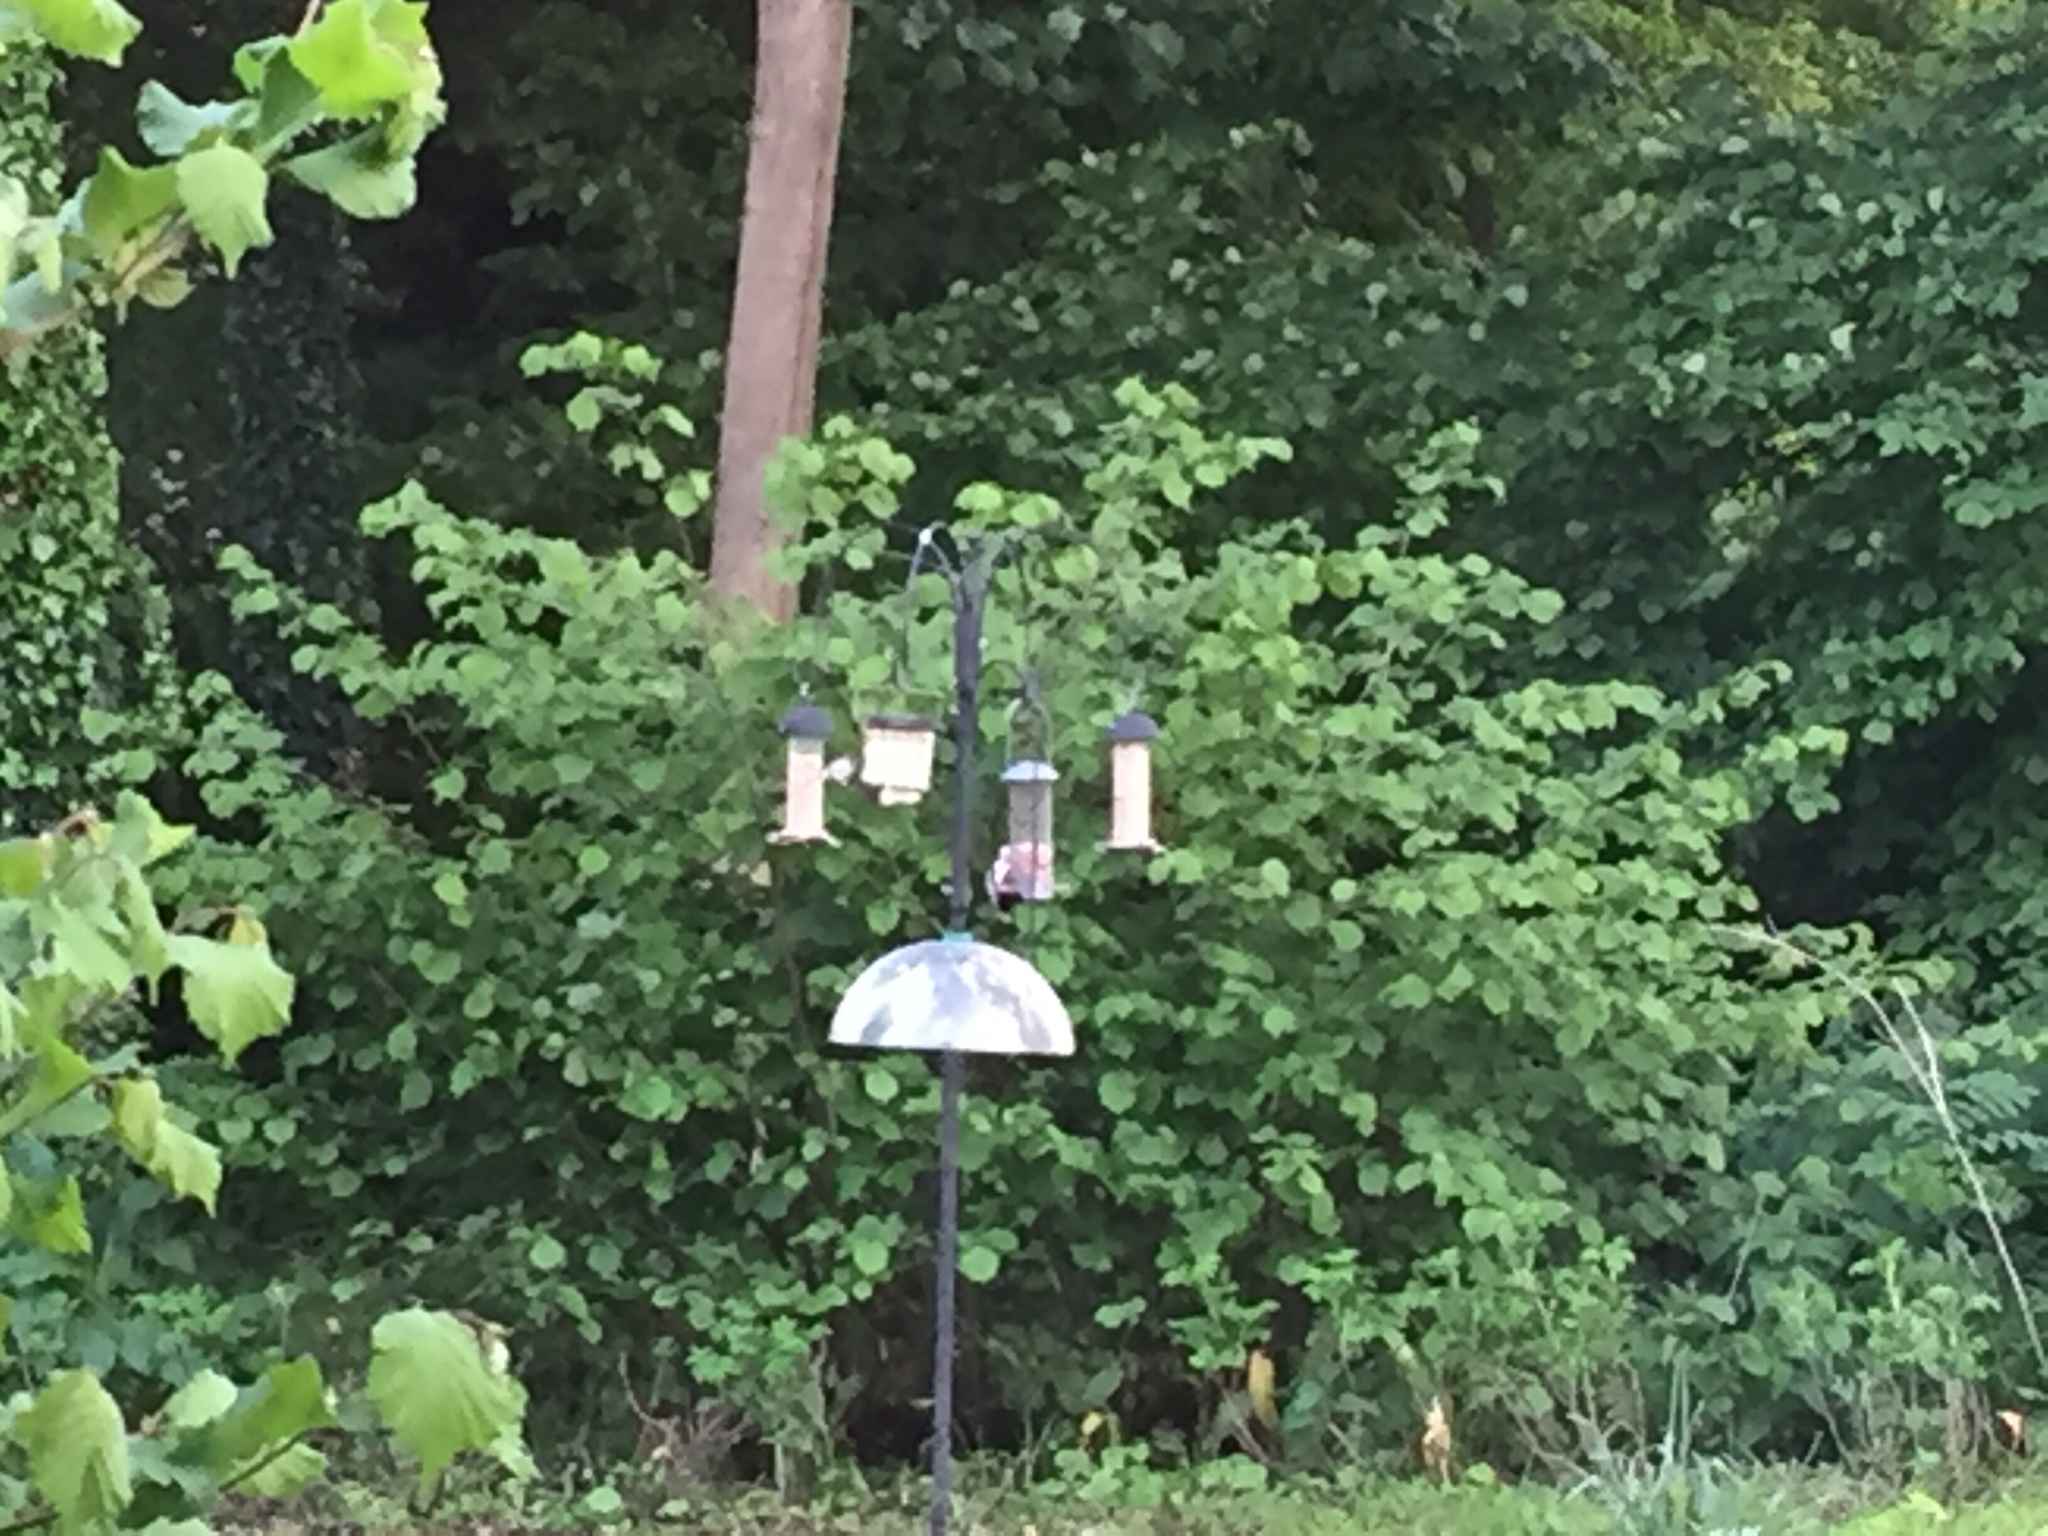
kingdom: Animalia
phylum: Chordata
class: Aves
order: Piciformes
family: Picidae
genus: Dendrocopos
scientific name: Dendrocopos major
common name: Great spotted woodpecker
